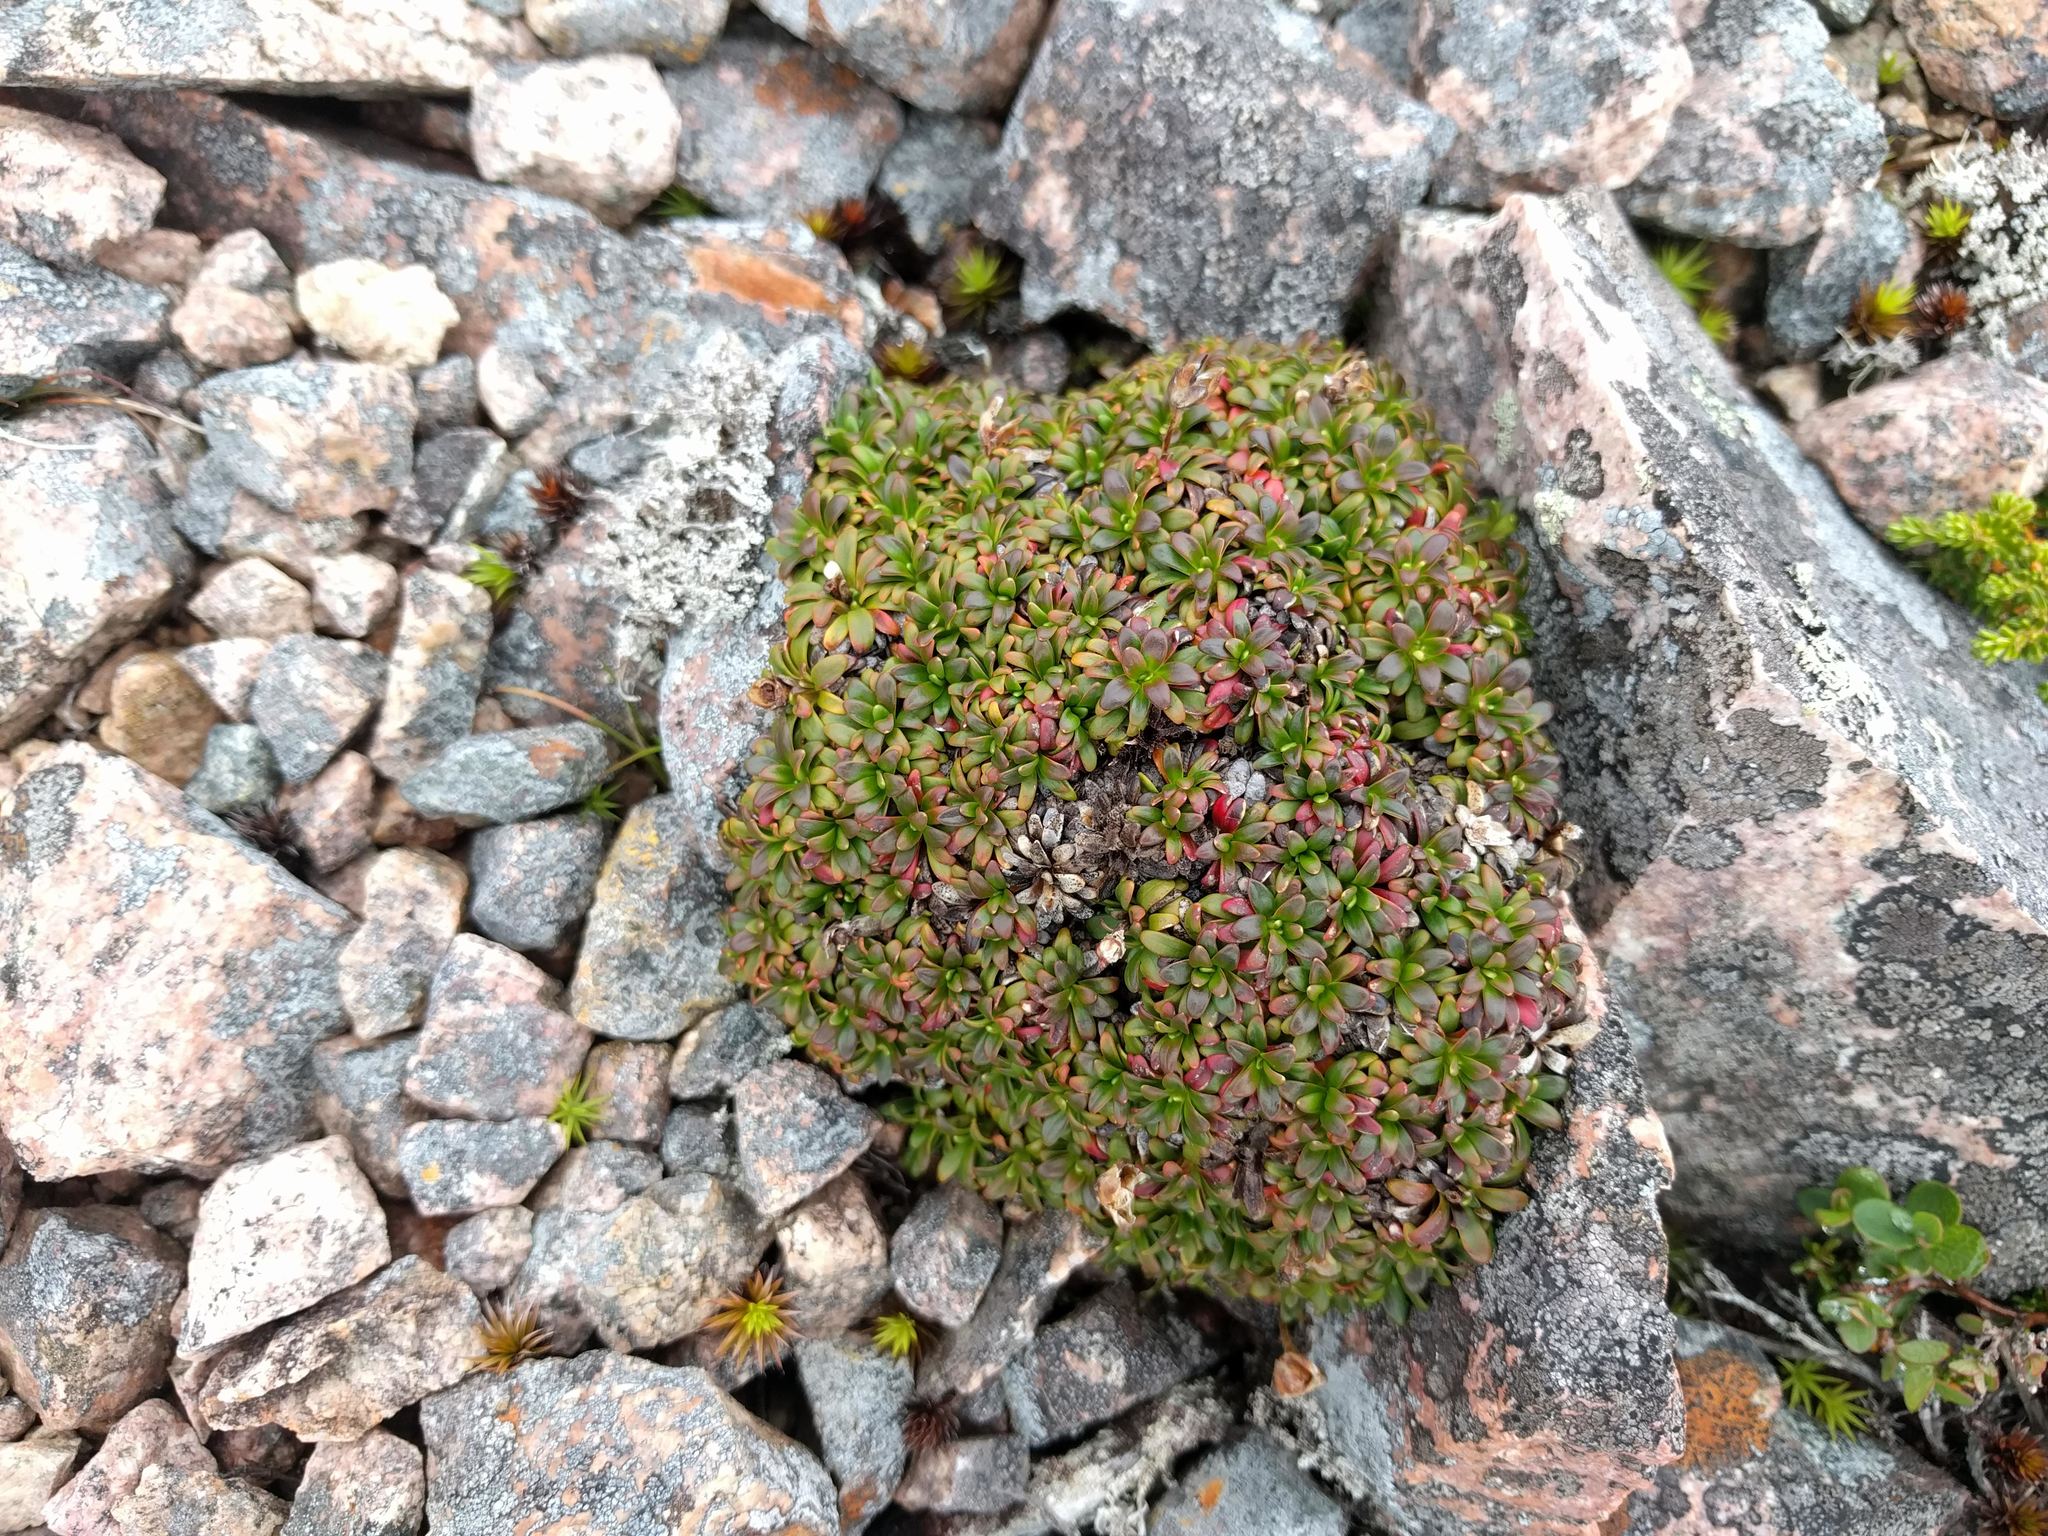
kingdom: Plantae
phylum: Tracheophyta
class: Magnoliopsida
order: Ericales
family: Diapensiaceae
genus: Diapensia
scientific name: Diapensia lapponica
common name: Diapensia
